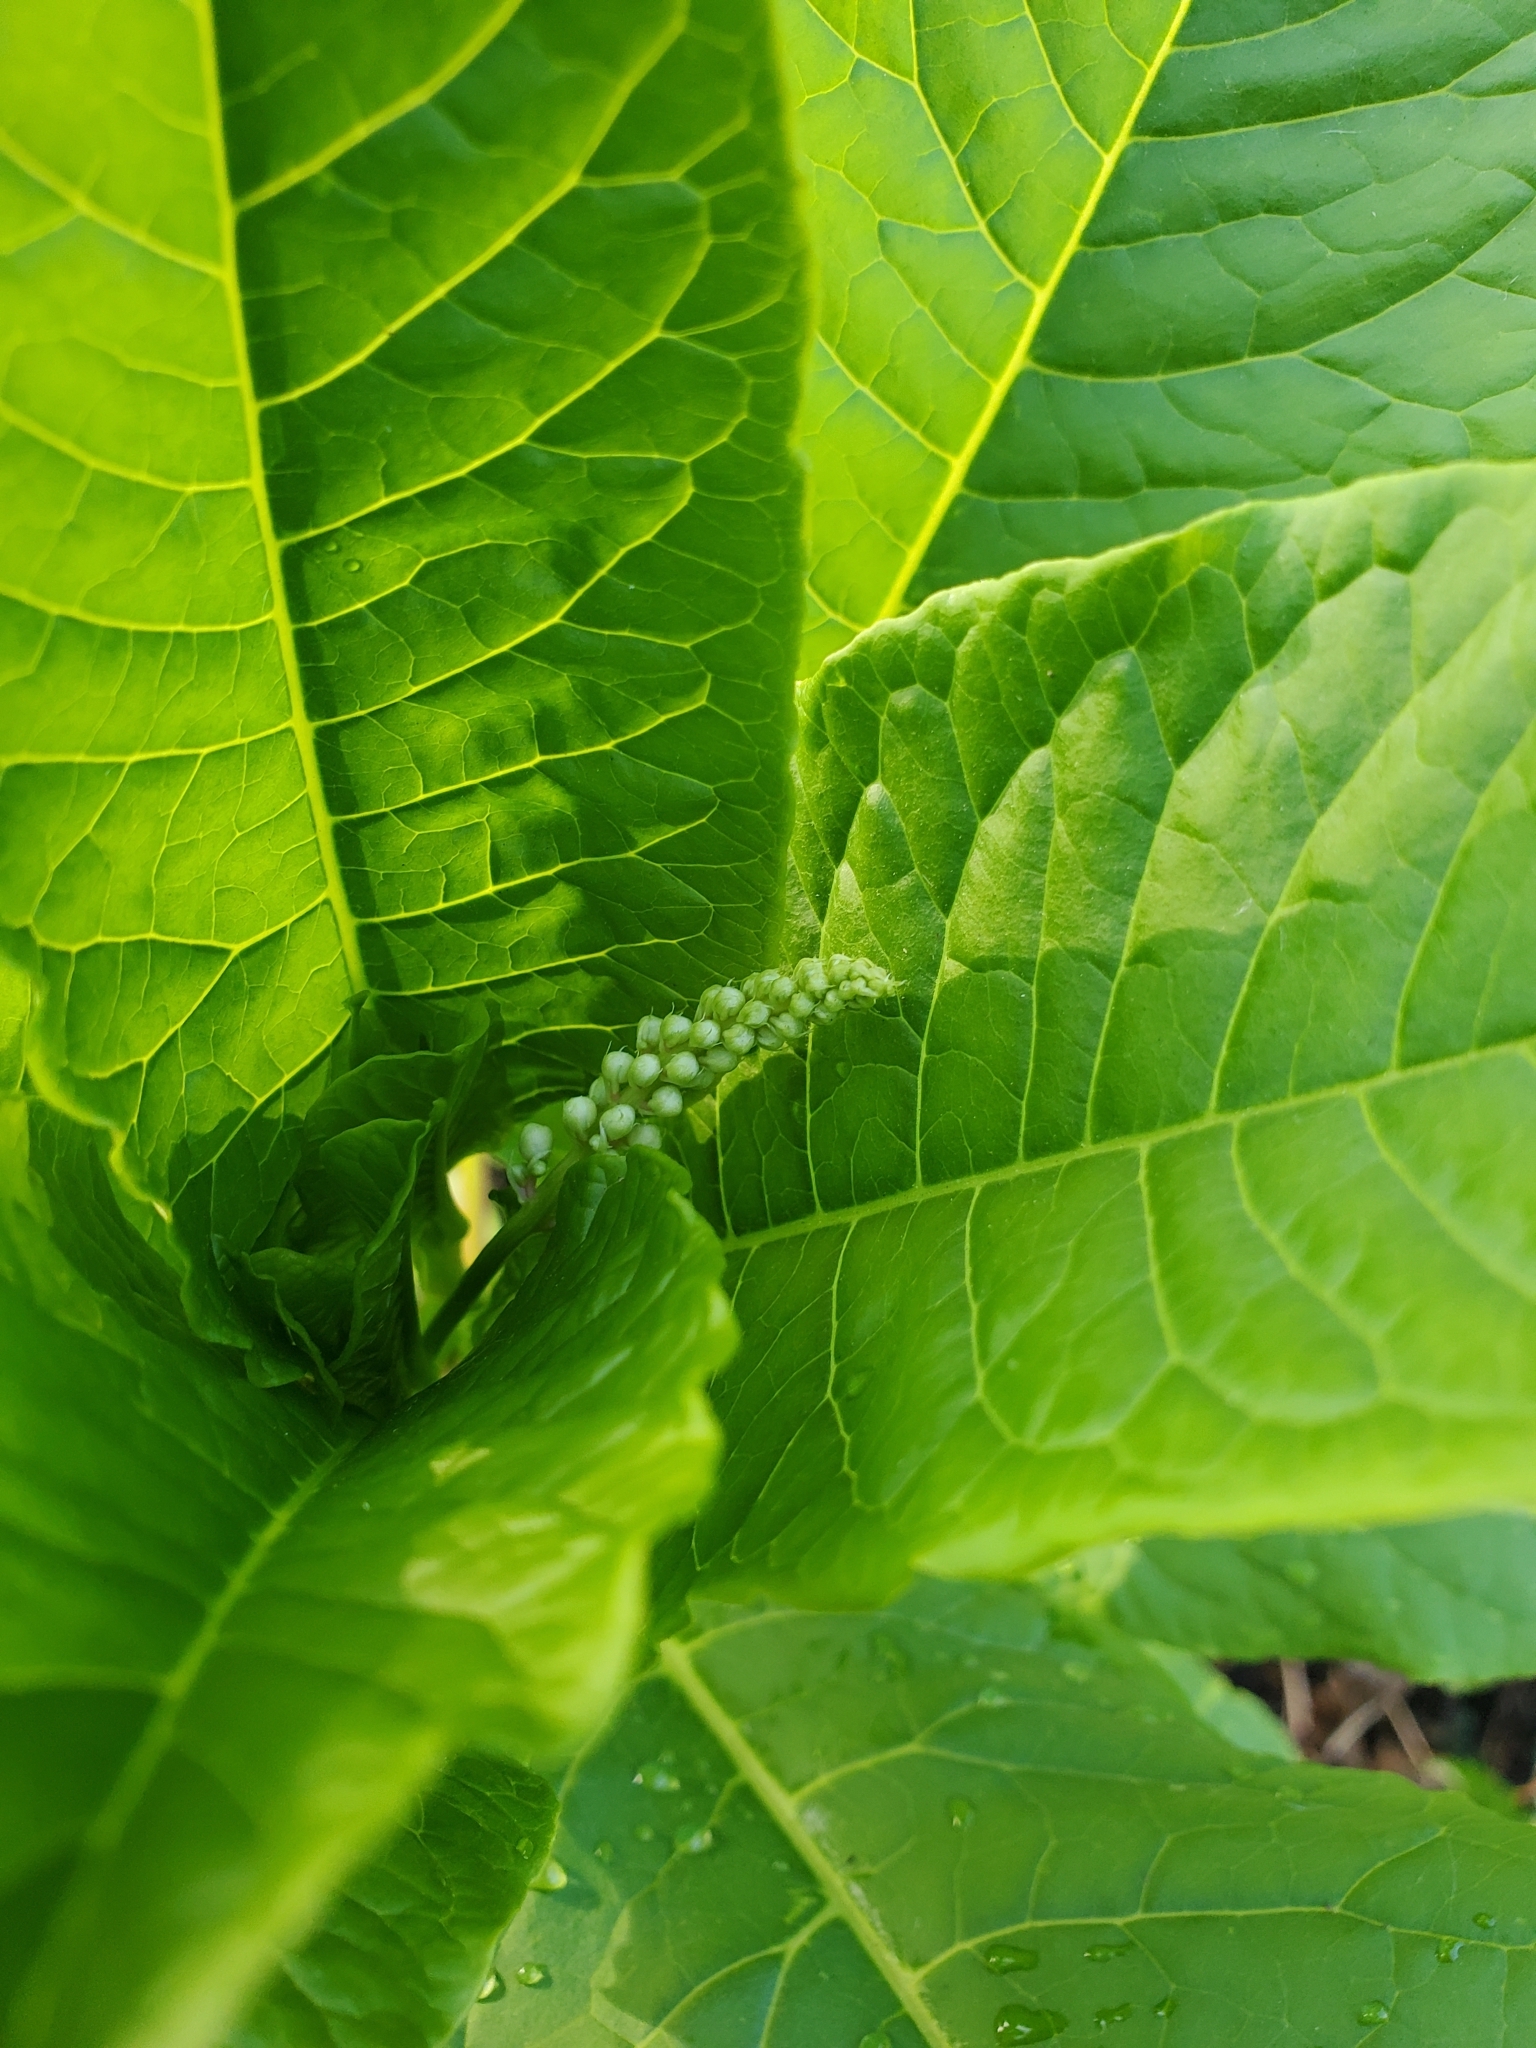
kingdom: Plantae
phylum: Tracheophyta
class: Magnoliopsida
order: Caryophyllales
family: Phytolaccaceae
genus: Phytolacca
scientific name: Phytolacca americana
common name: American pokeweed
